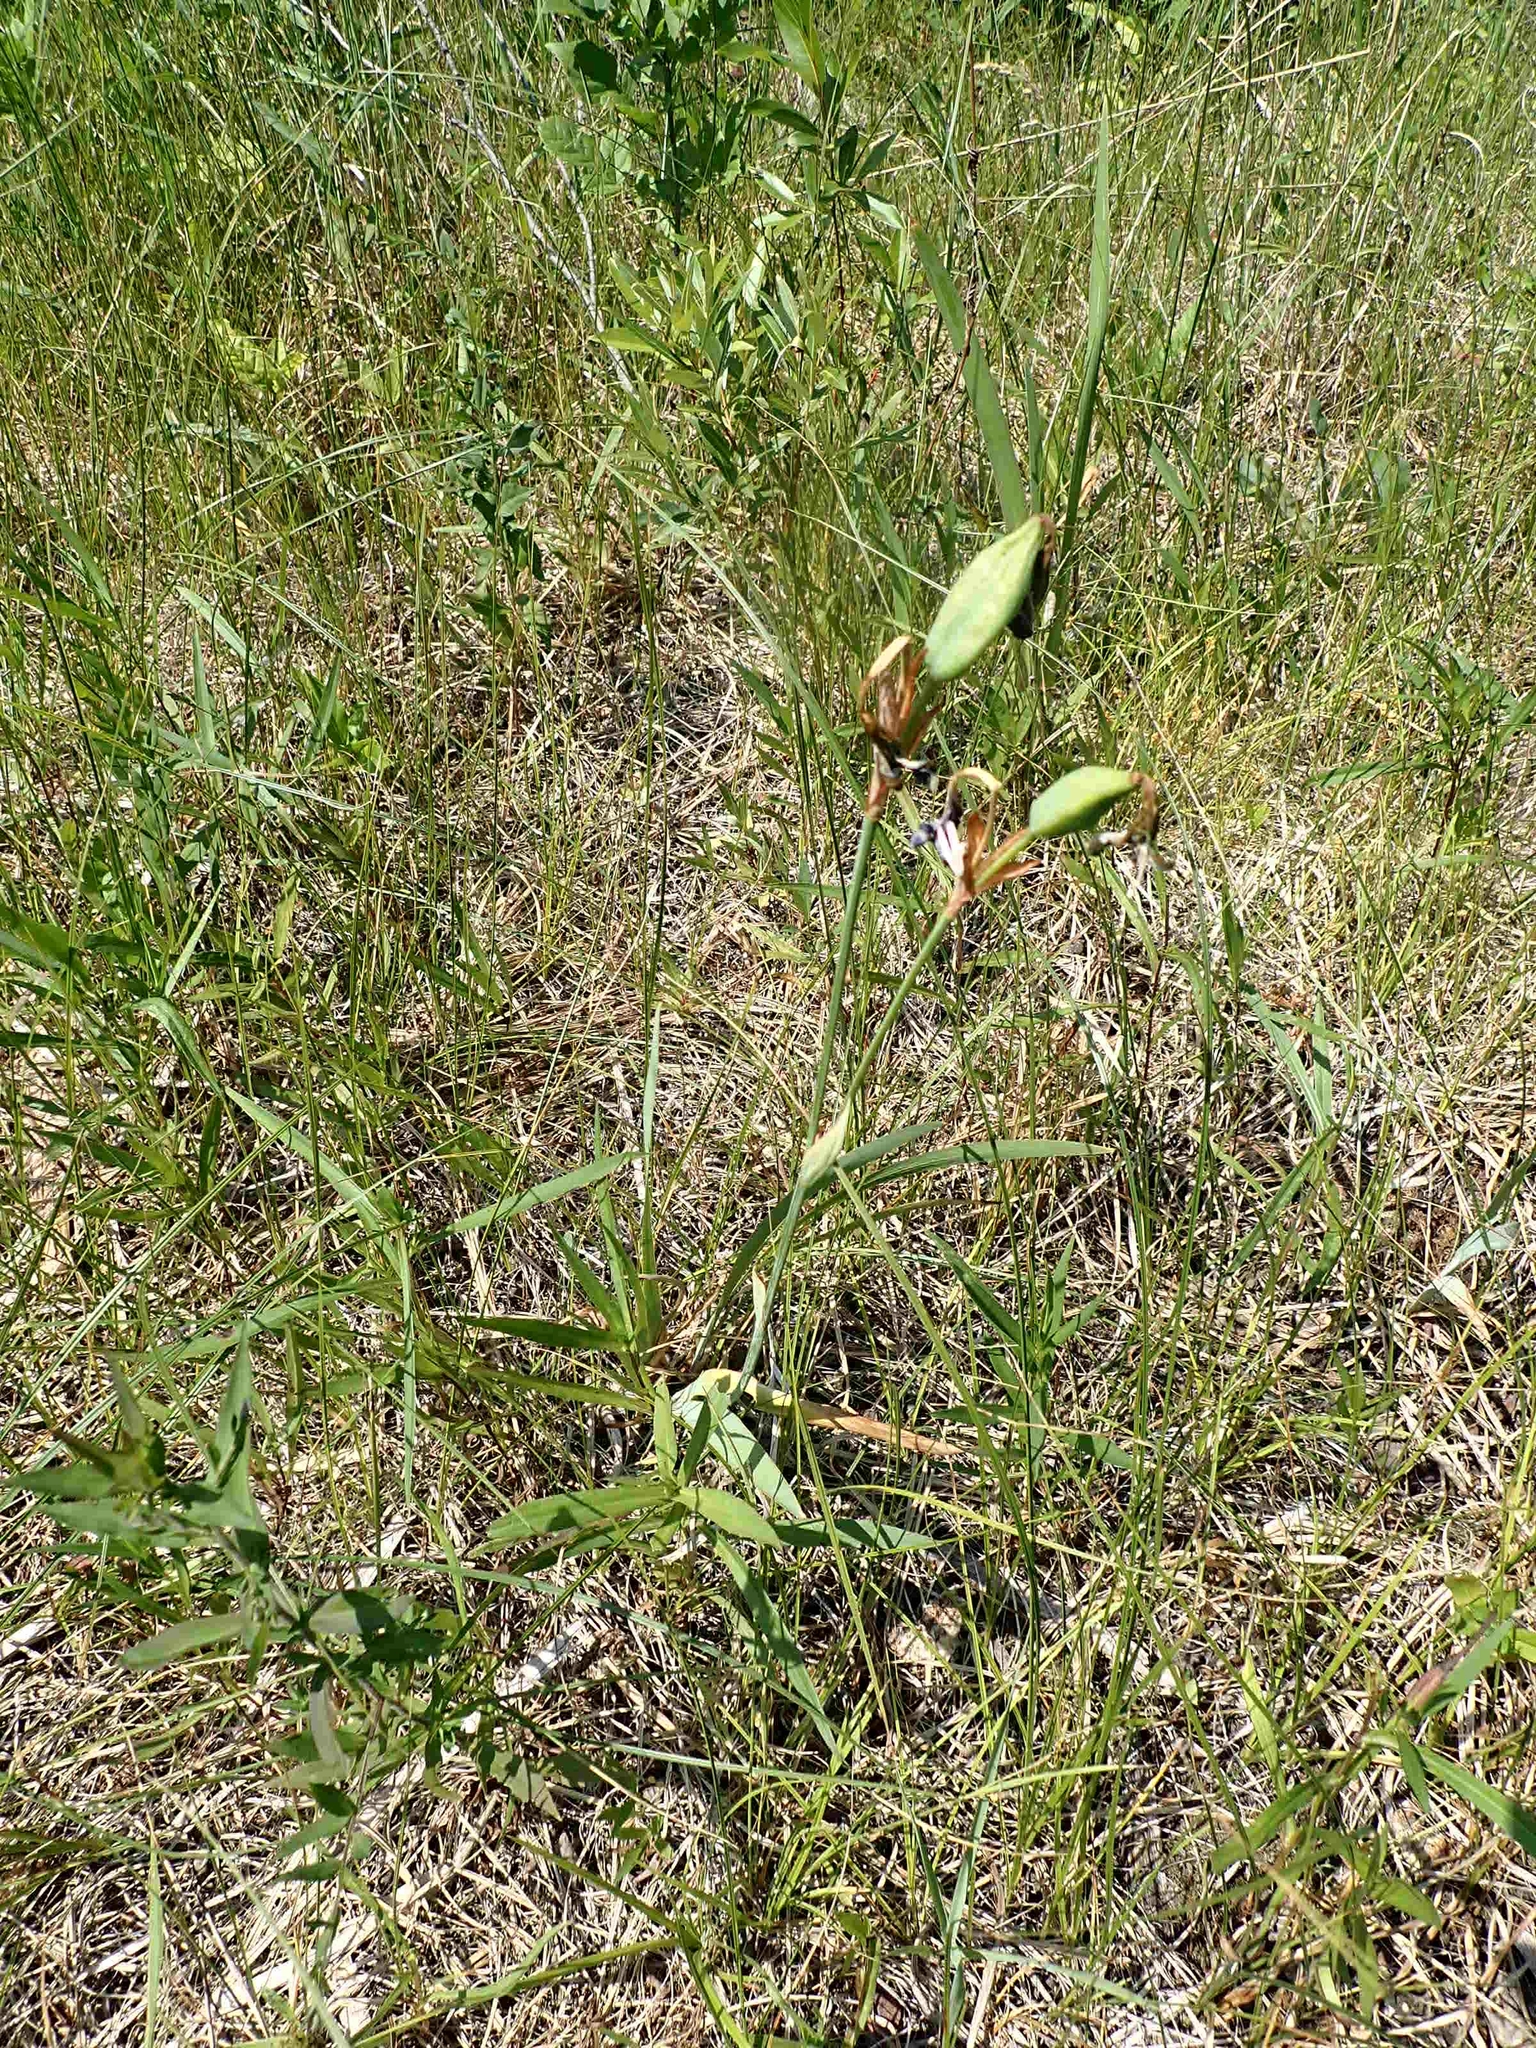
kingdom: Plantae
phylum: Tracheophyta
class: Liliopsida
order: Asparagales
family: Iridaceae
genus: Iris
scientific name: Iris versicolor
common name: Purple iris
